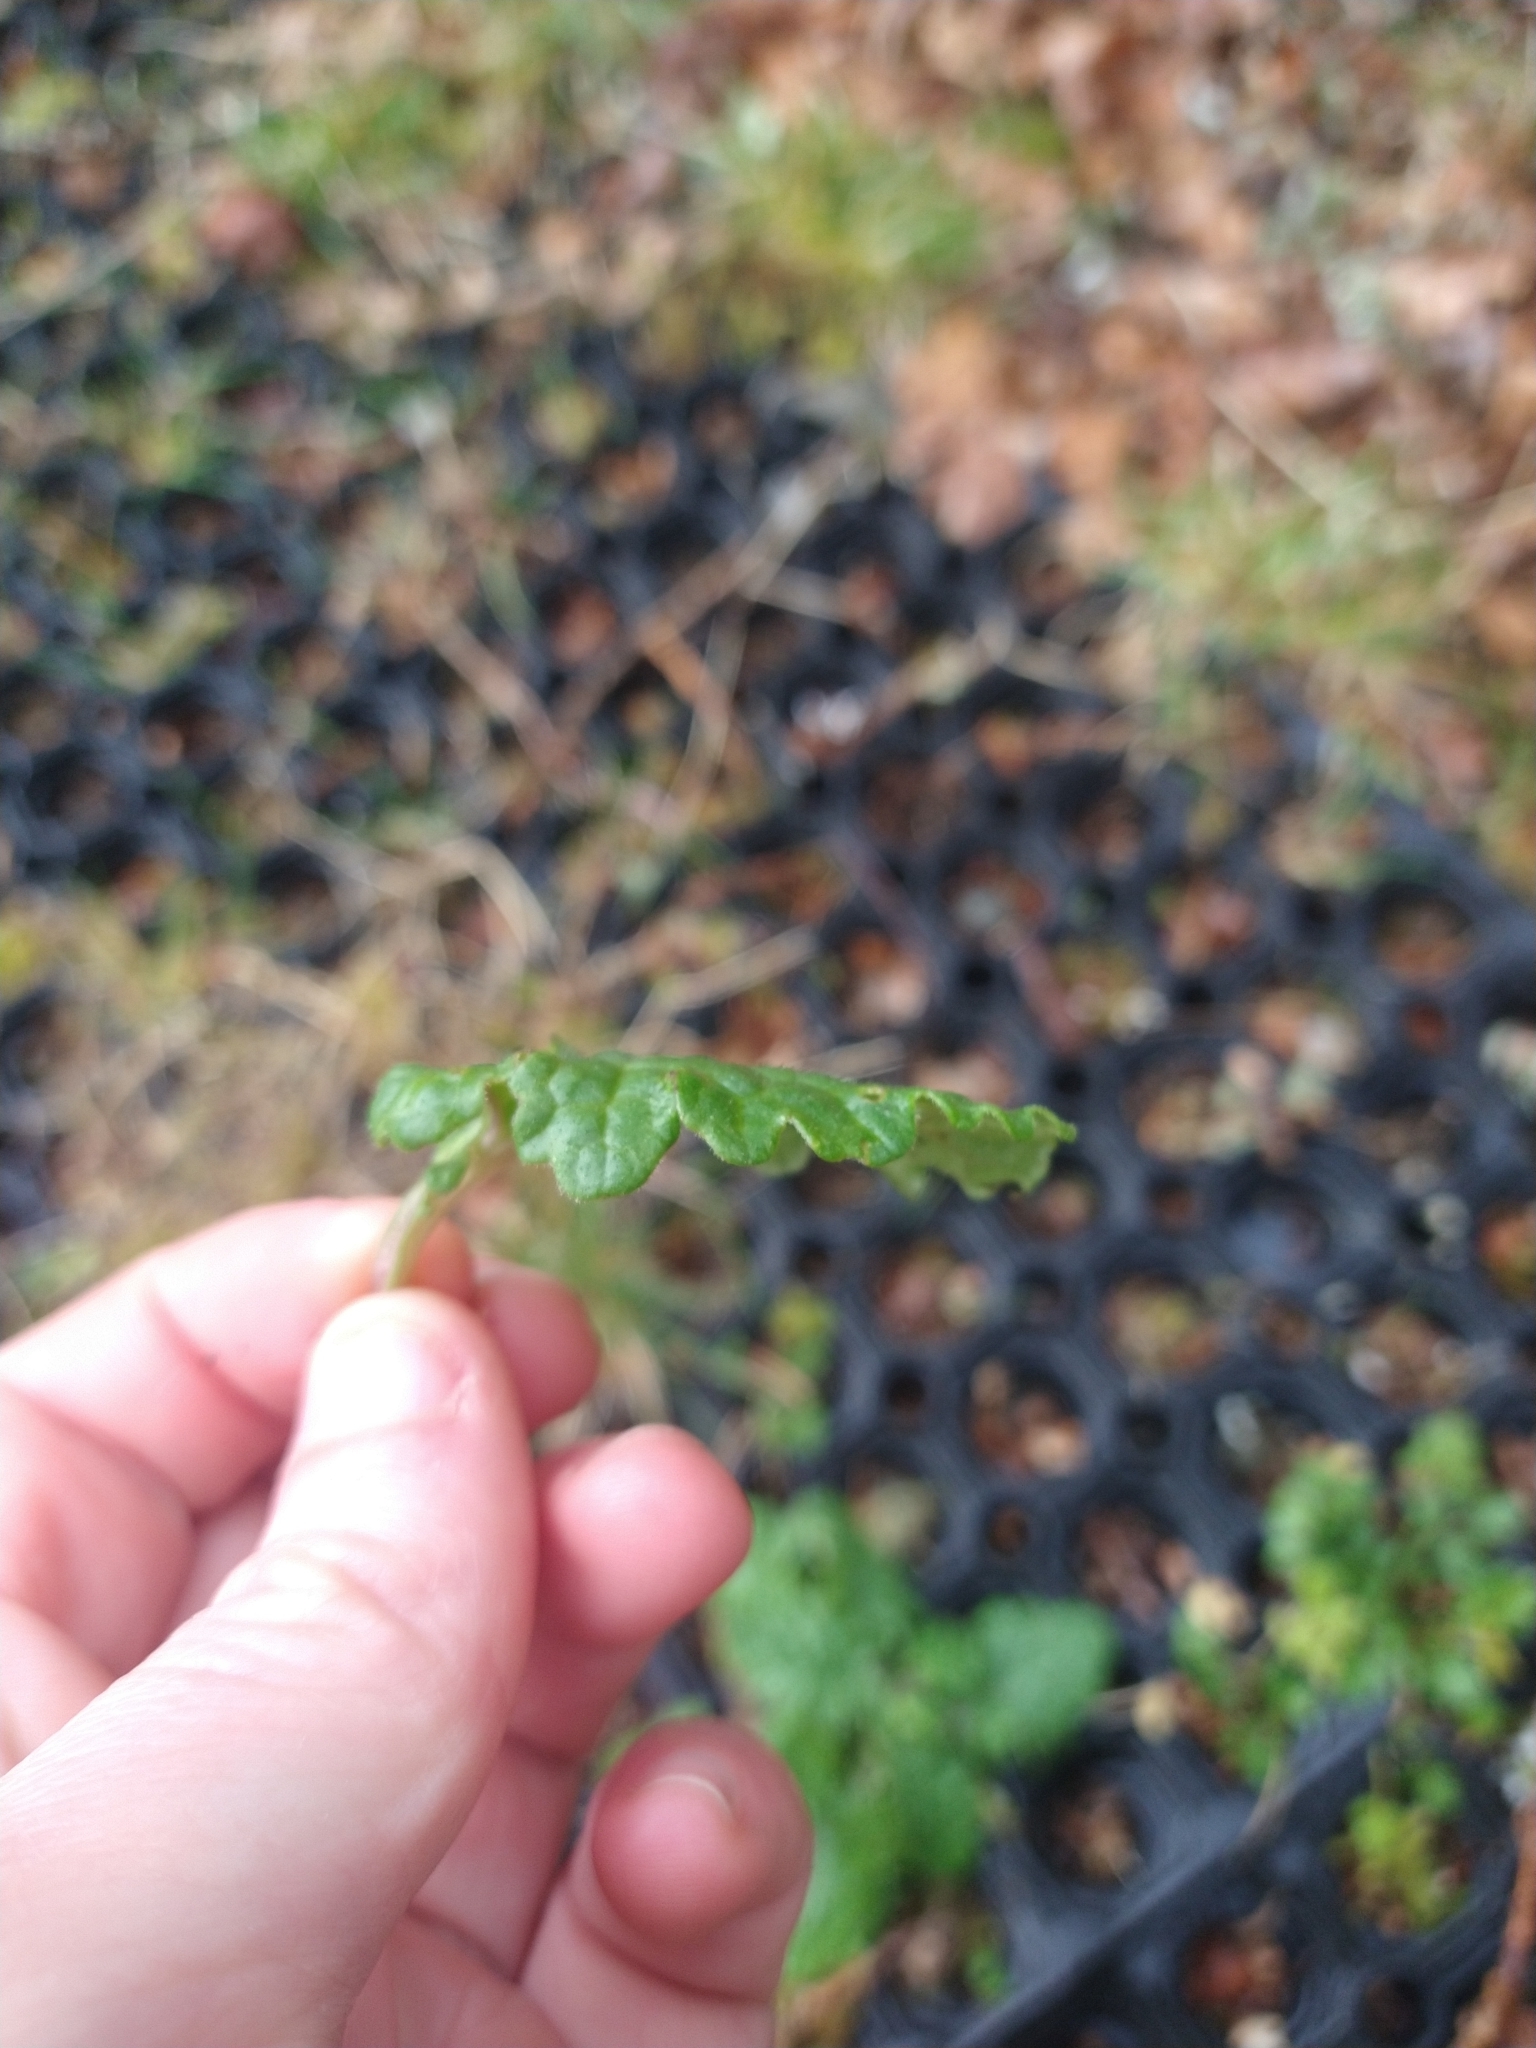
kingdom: Plantae
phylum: Tracheophyta
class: Magnoliopsida
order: Asterales
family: Asteraceae
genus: Jacobaea
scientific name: Jacobaea vulgaris
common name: Stinking willie
